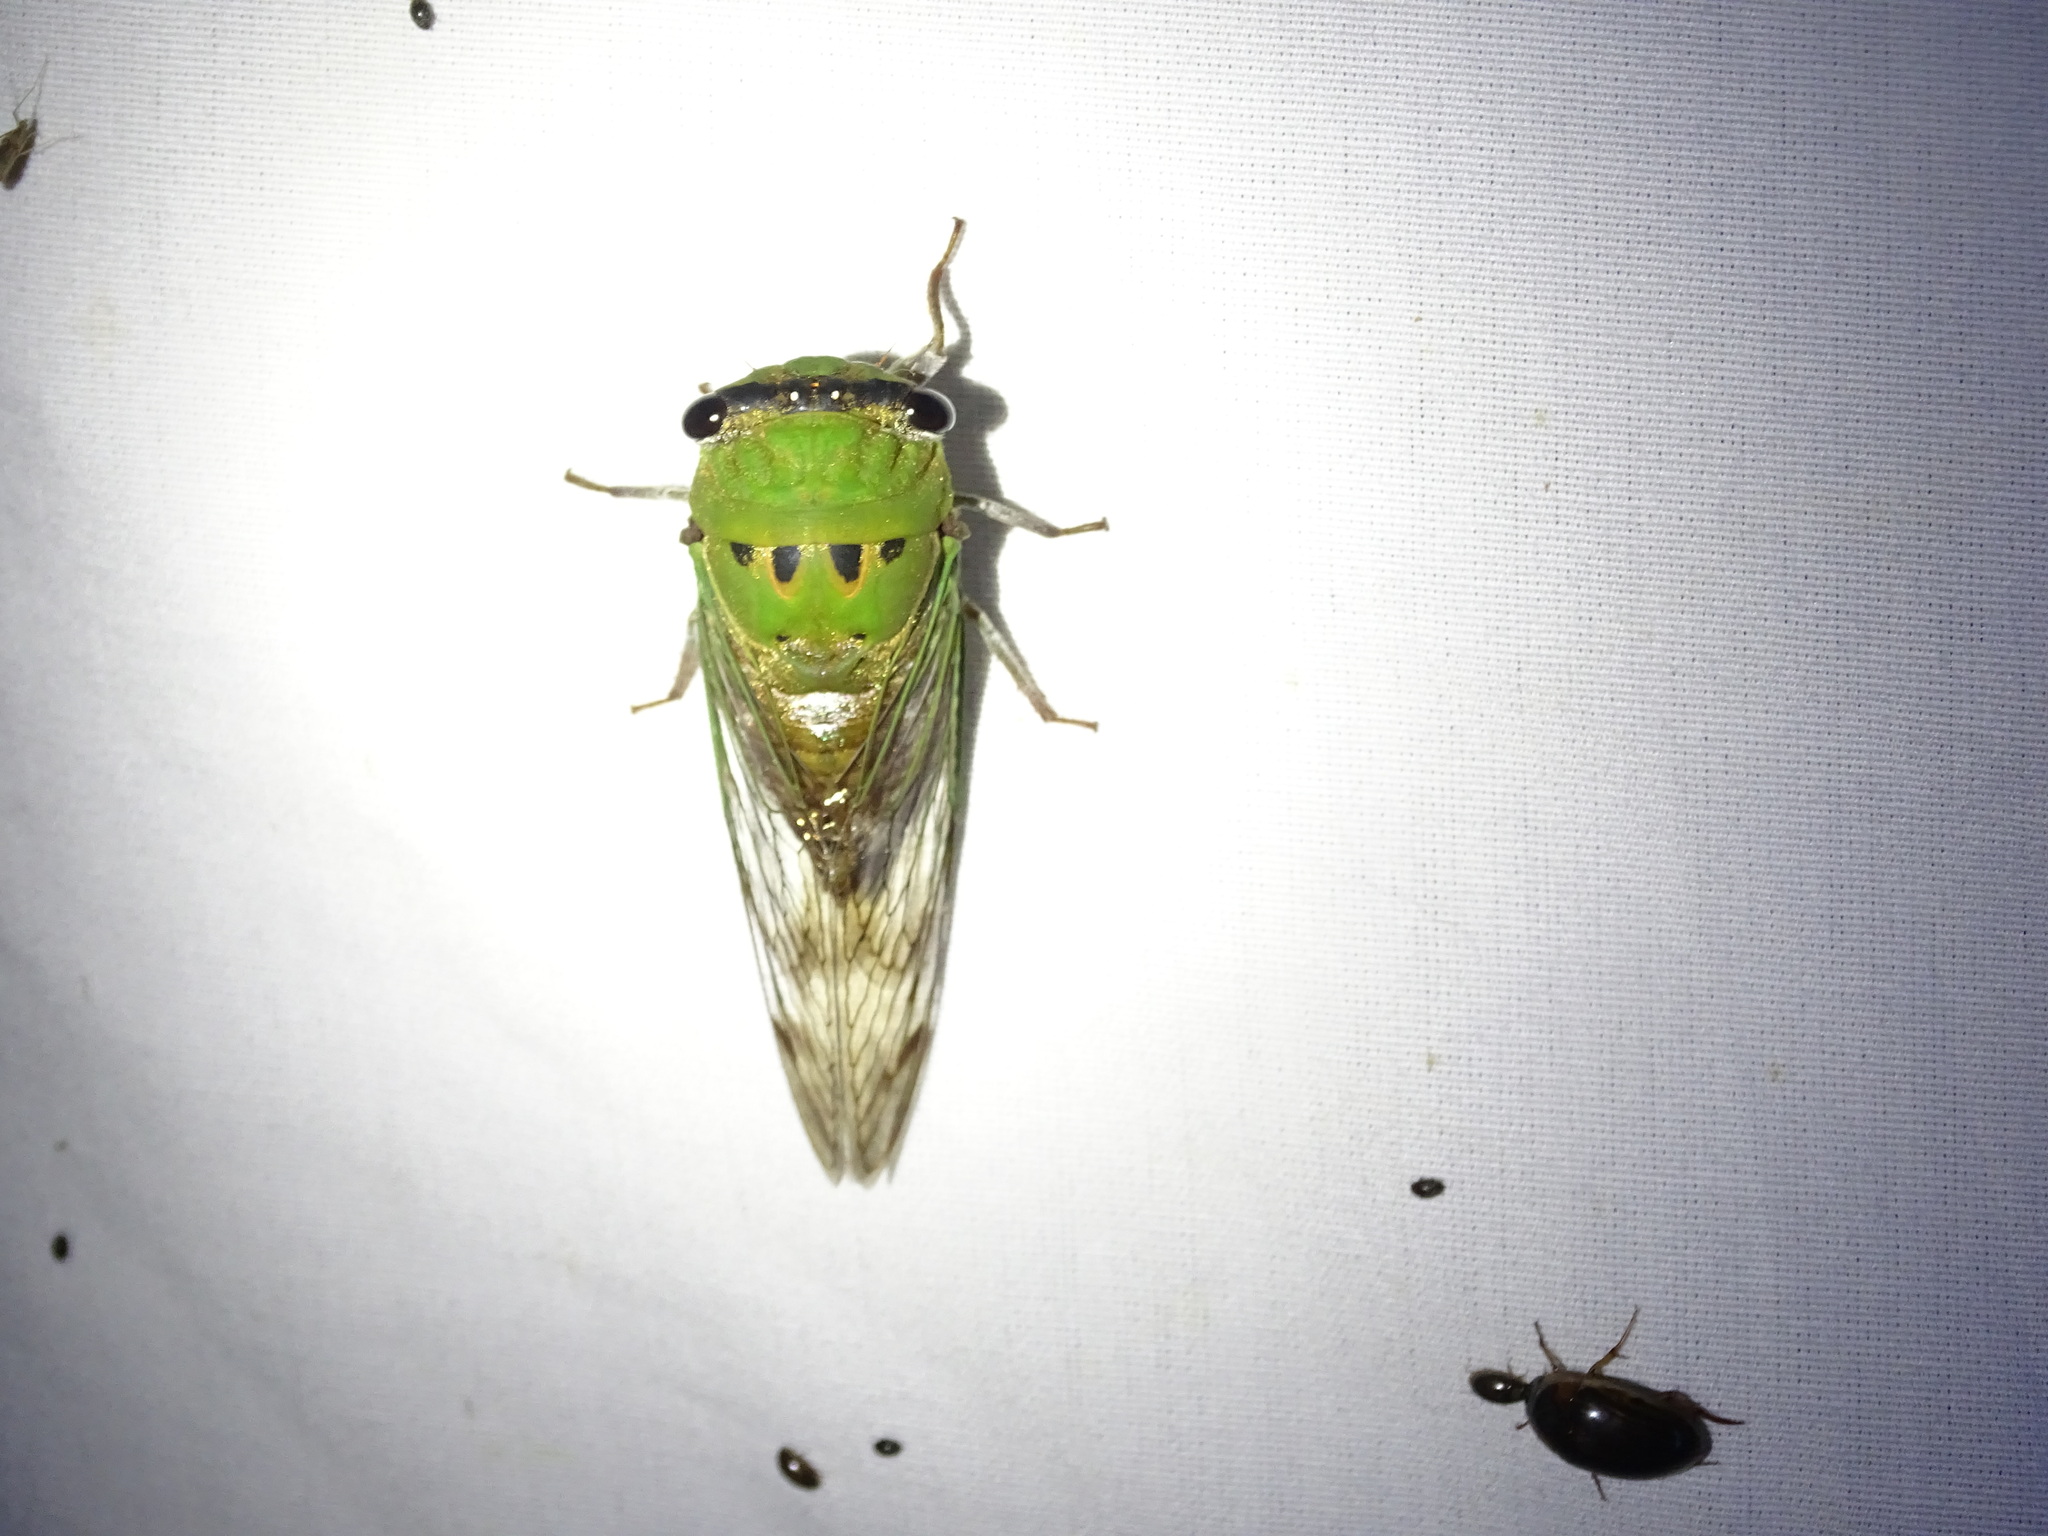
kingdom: Animalia
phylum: Arthropoda
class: Insecta
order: Hemiptera
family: Cicadidae
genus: Neotibicen
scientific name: Neotibicen superbus
